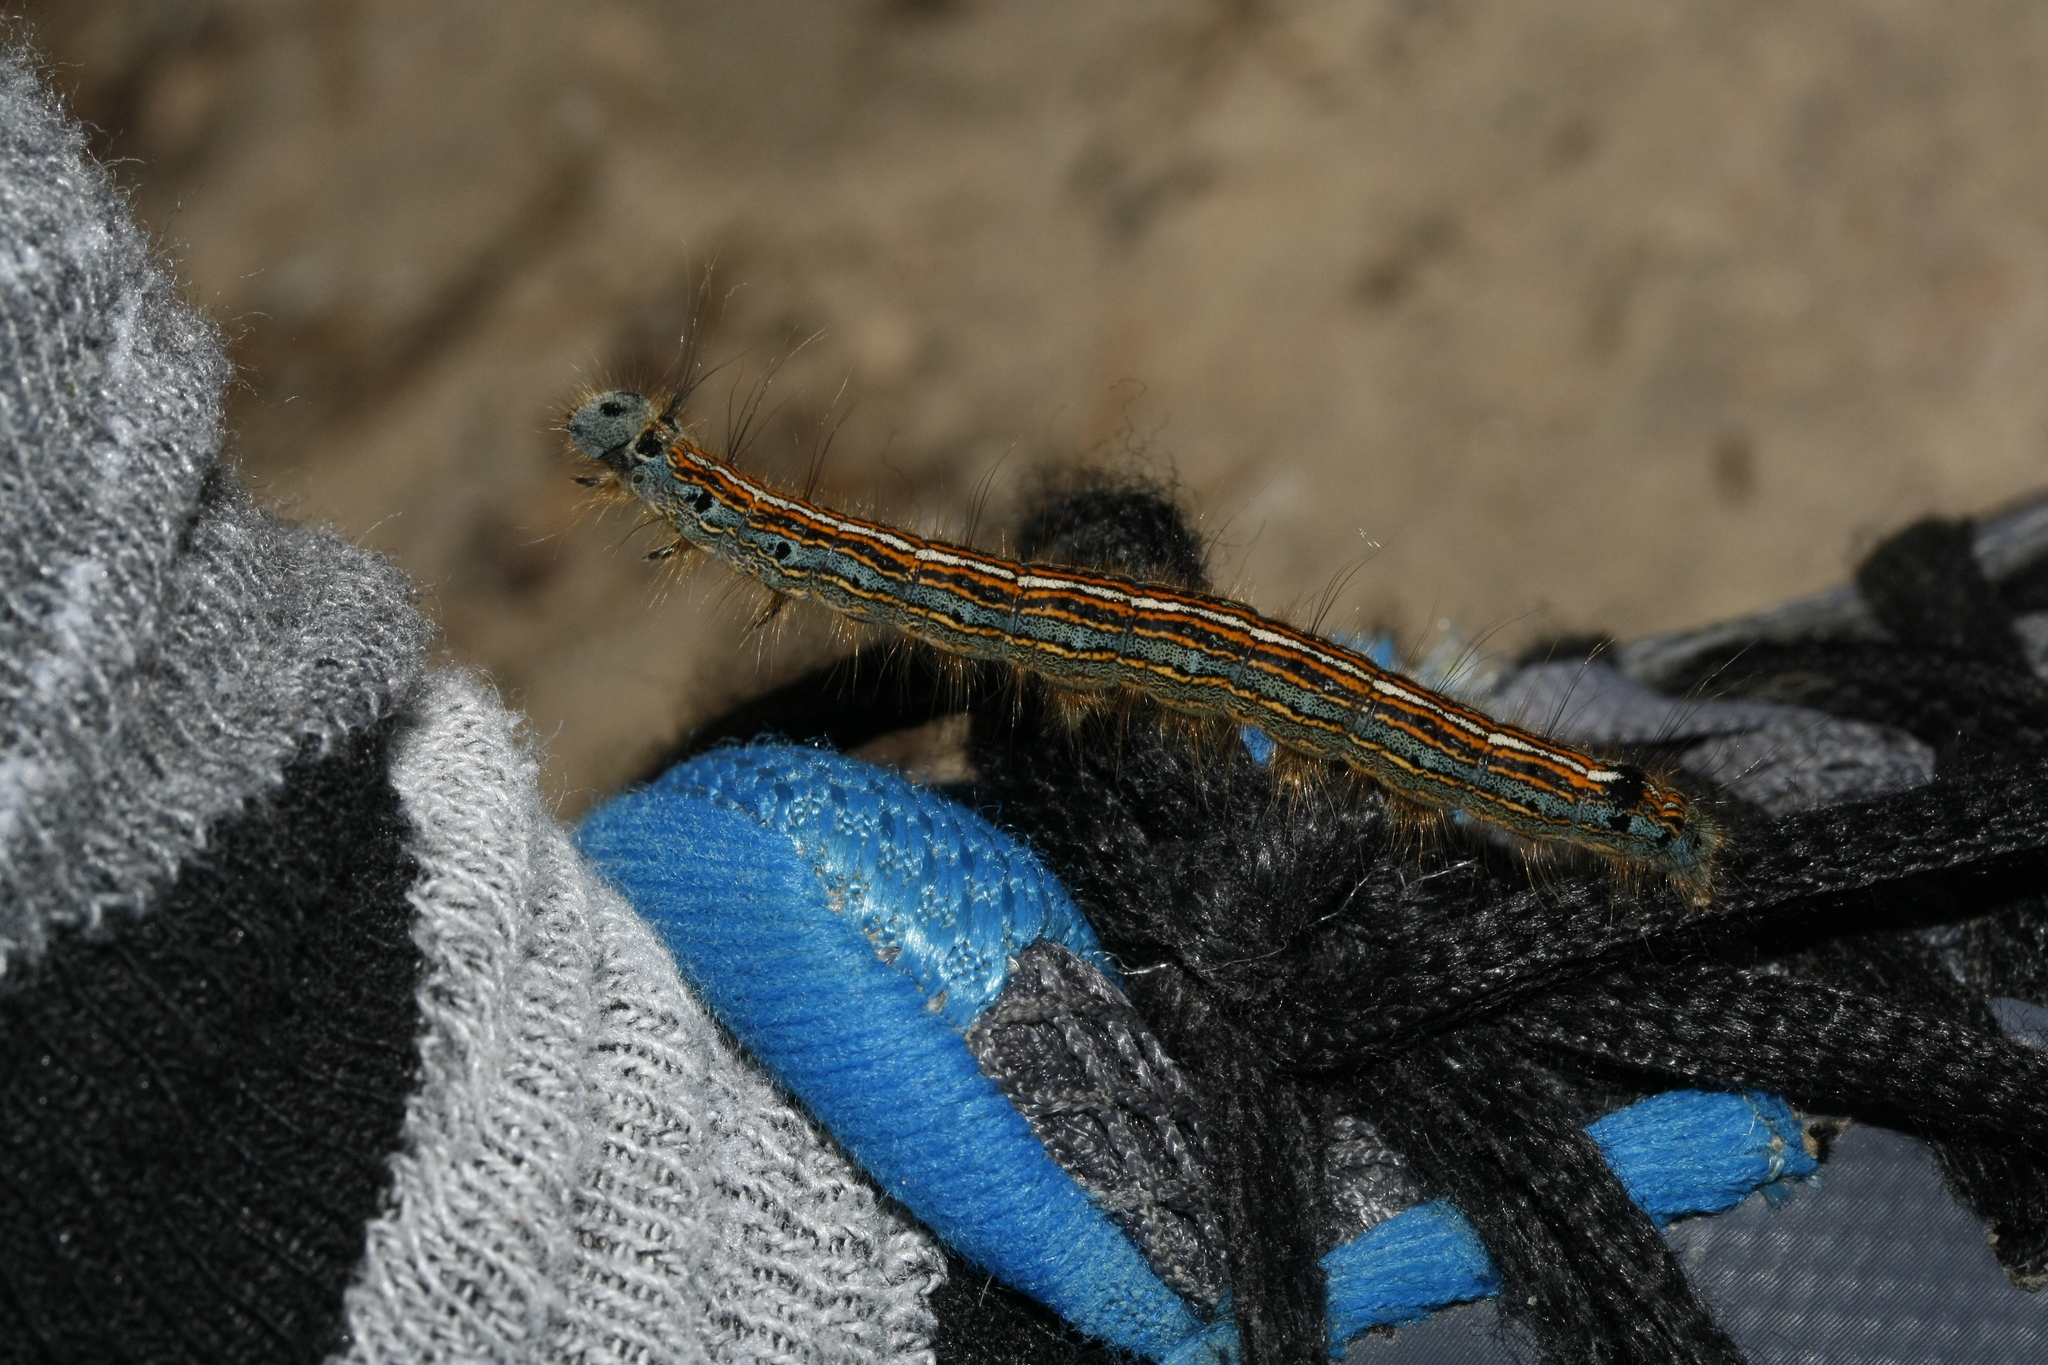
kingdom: Animalia
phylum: Arthropoda
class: Insecta
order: Lepidoptera
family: Lasiocampidae
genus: Malacosoma
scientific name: Malacosoma neustria
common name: The lackey
